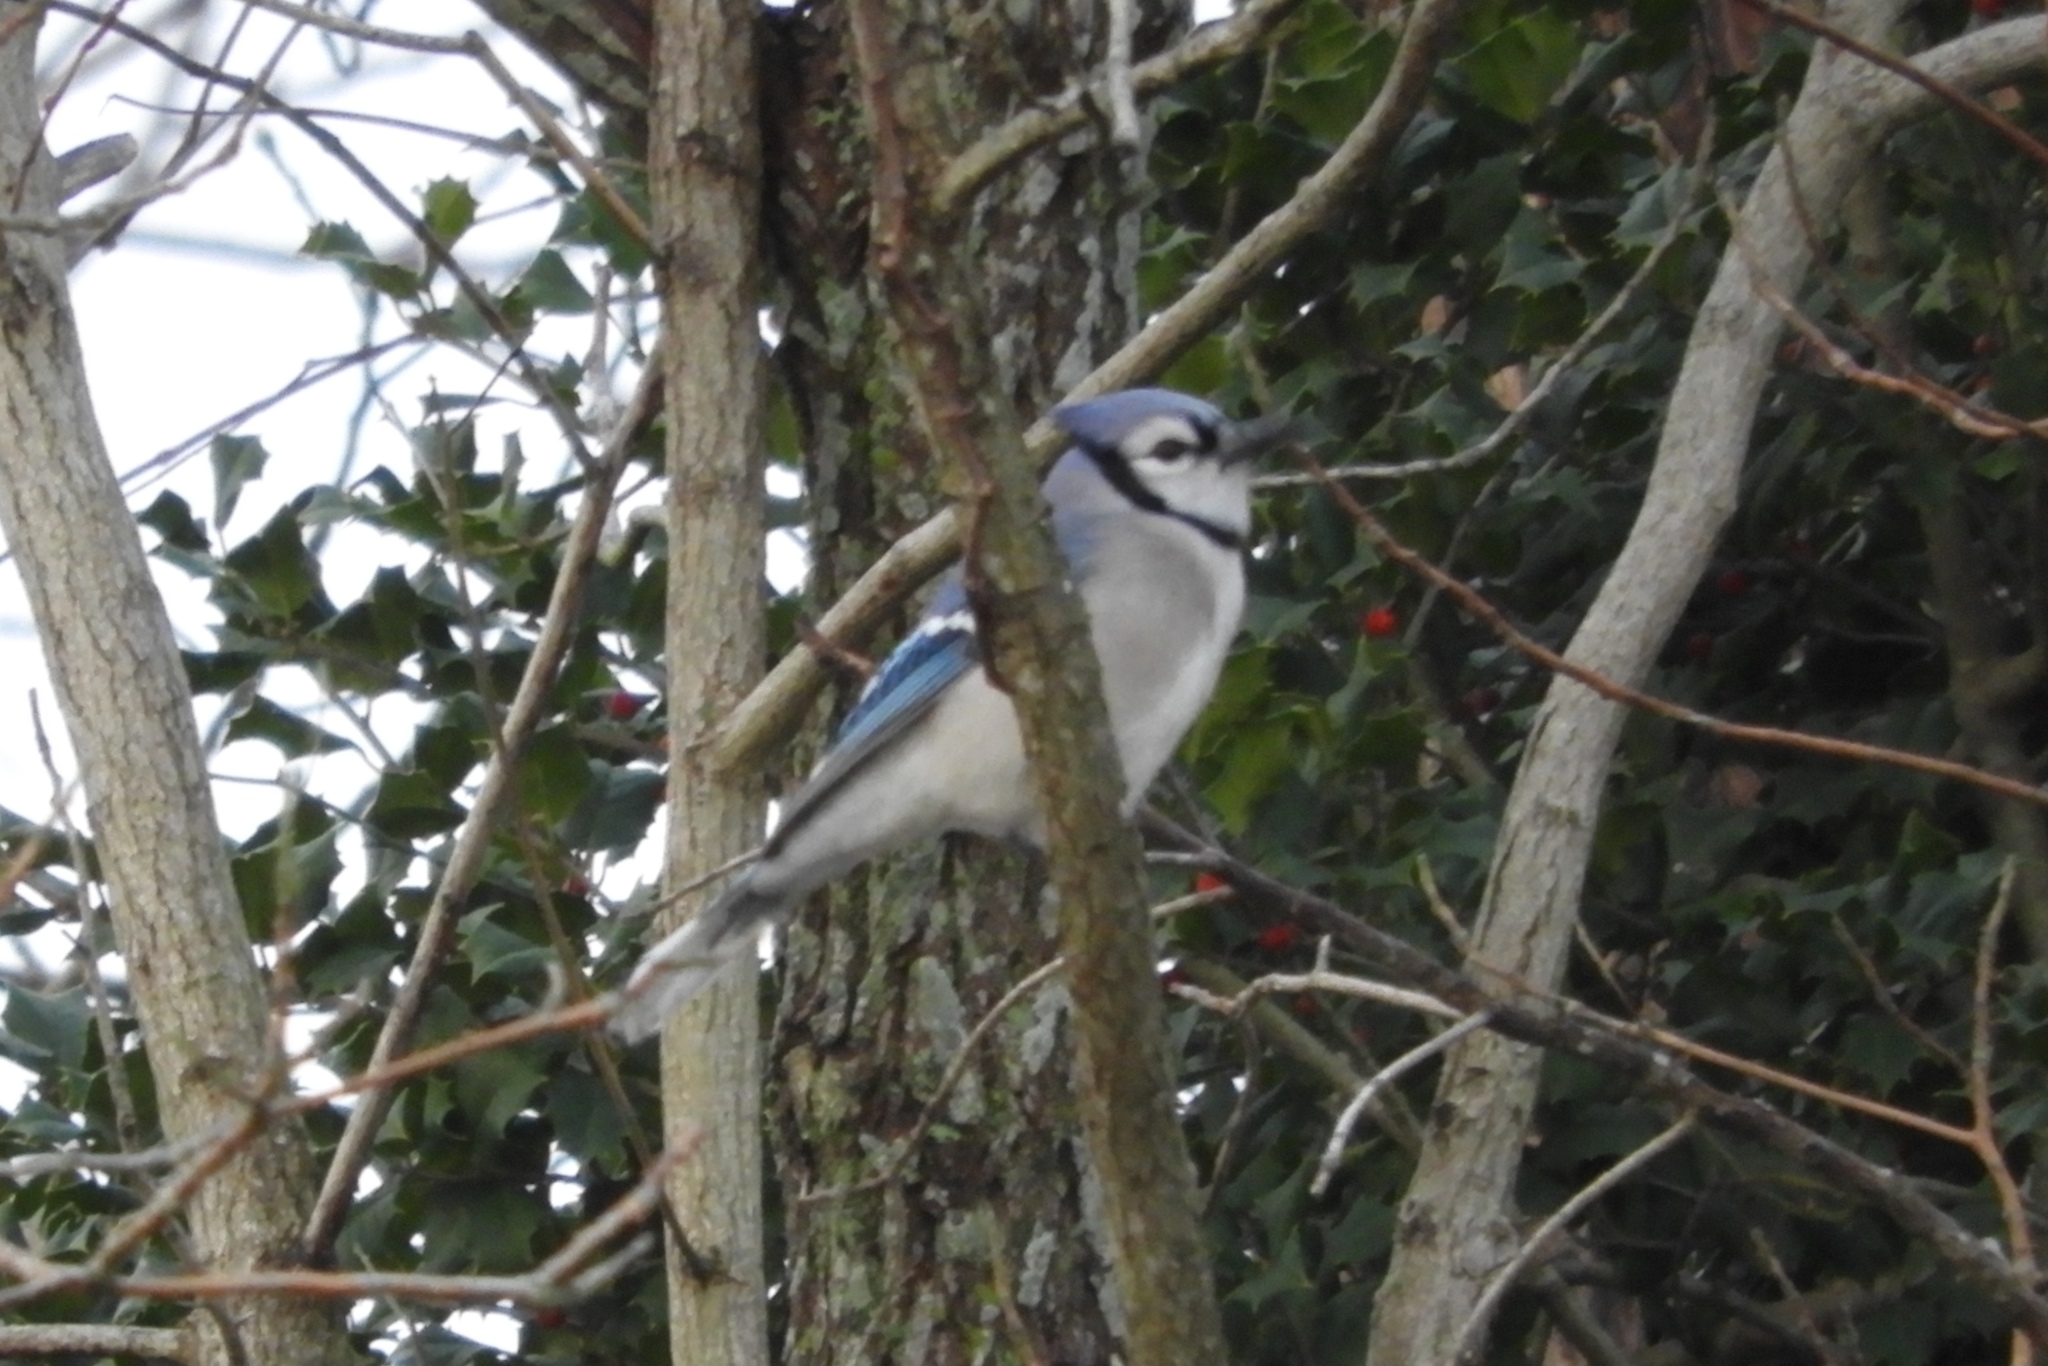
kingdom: Animalia
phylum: Chordata
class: Aves
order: Passeriformes
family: Corvidae
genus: Cyanocitta
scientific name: Cyanocitta cristata
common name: Blue jay
